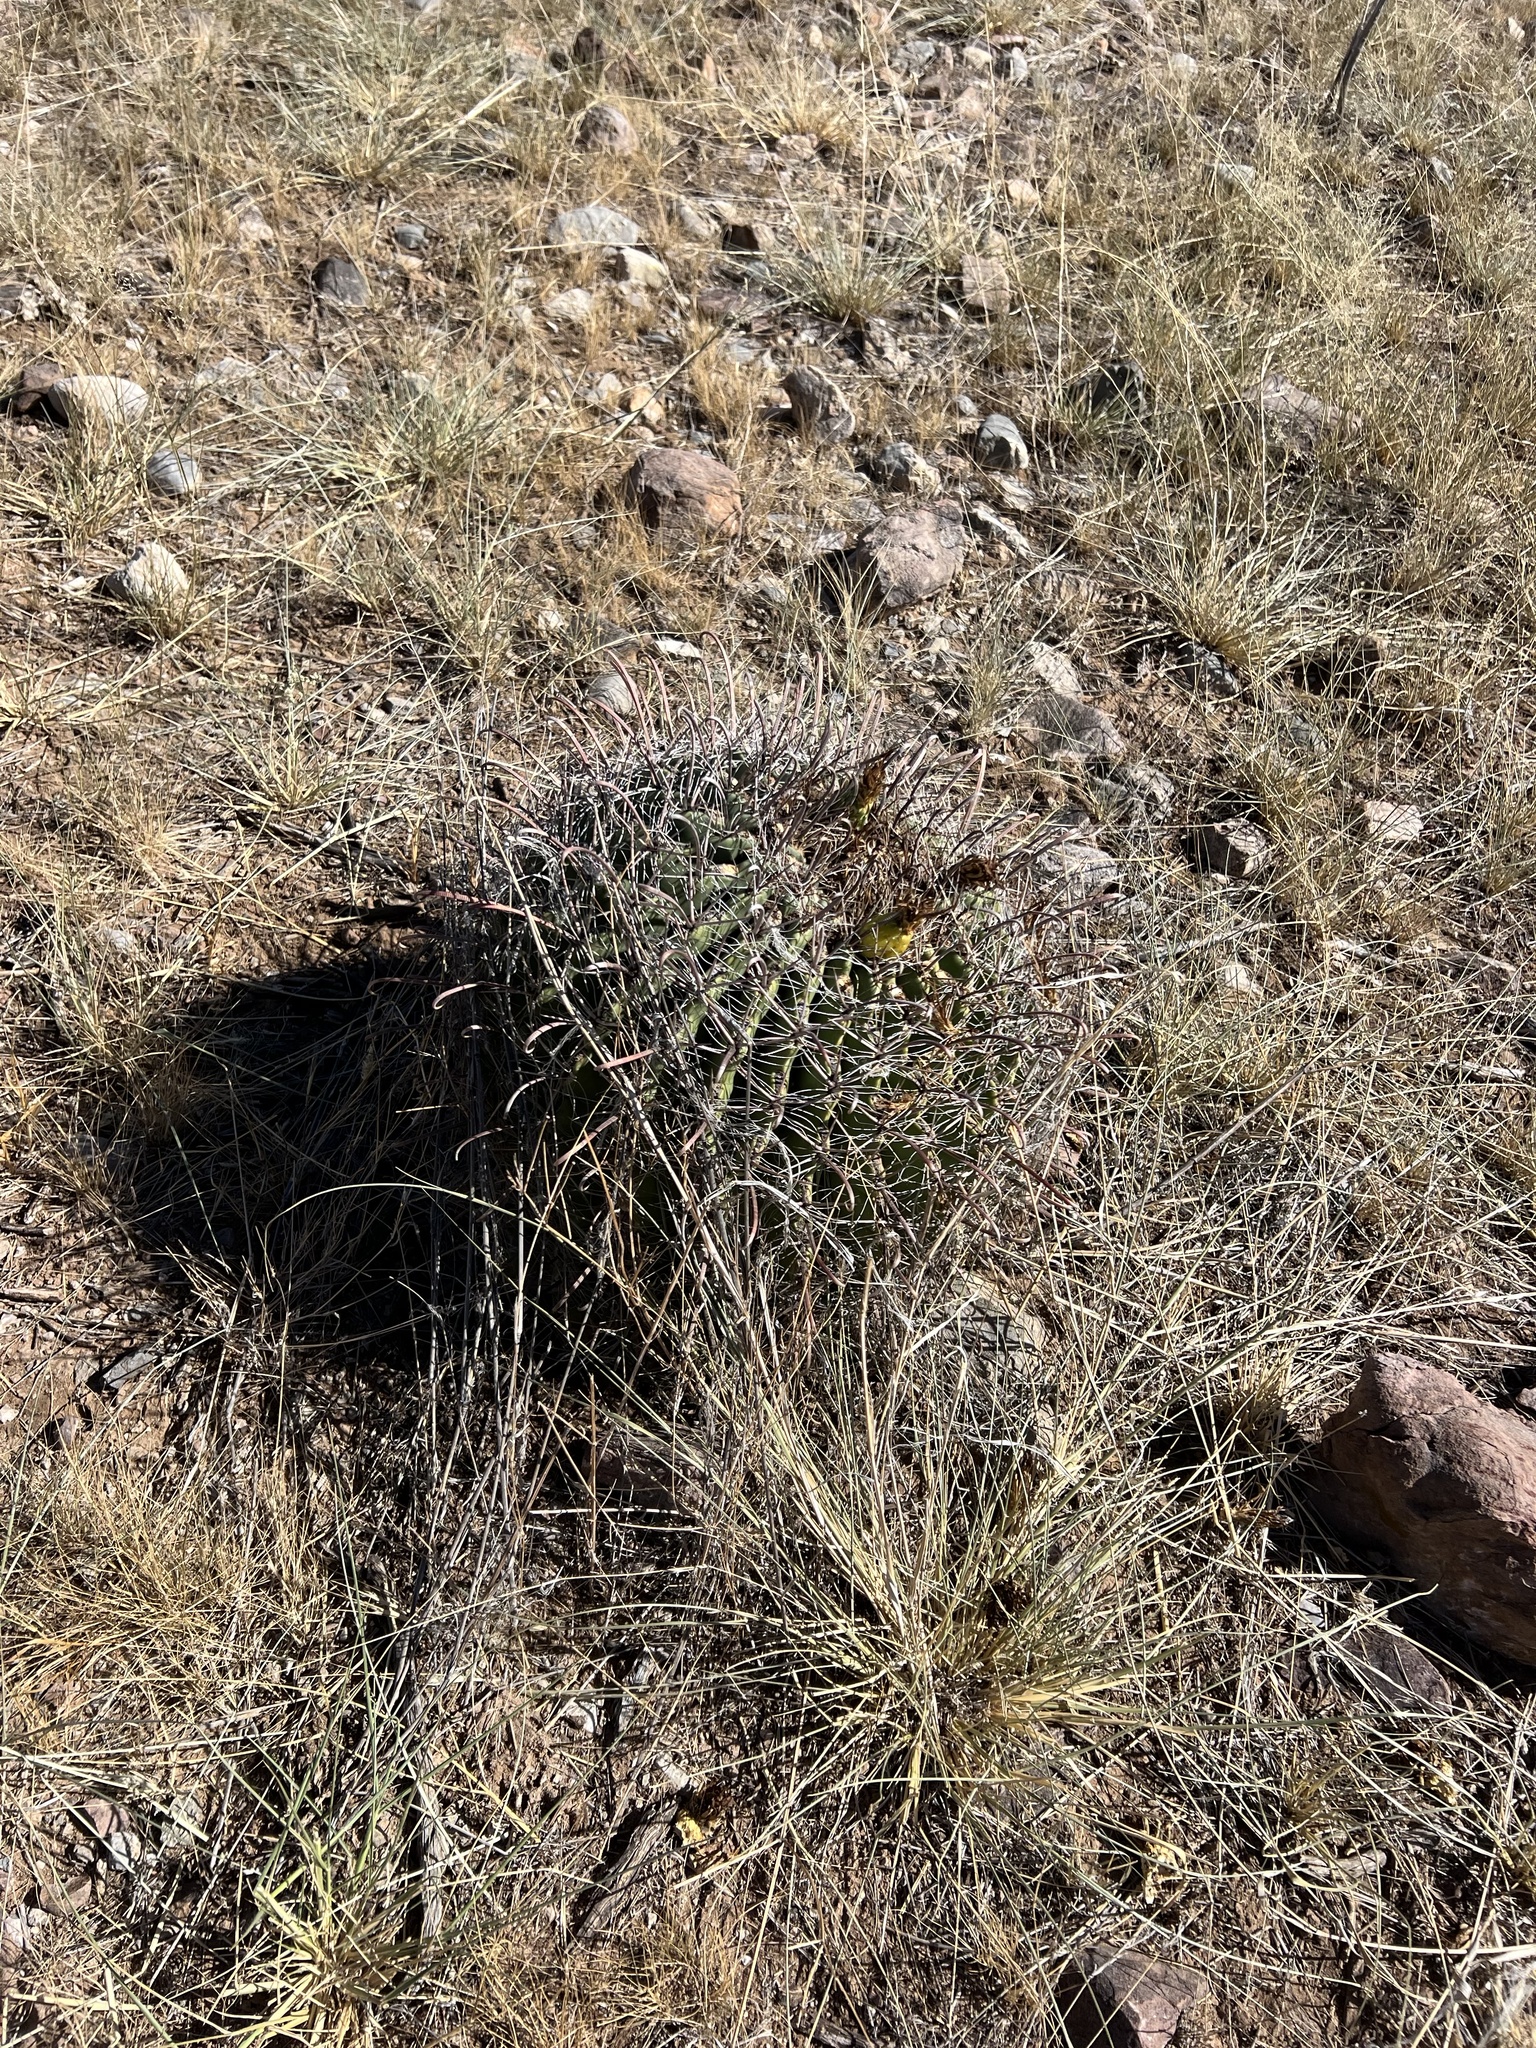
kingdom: Plantae
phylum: Tracheophyta
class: Magnoliopsida
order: Caryophyllales
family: Cactaceae
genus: Ferocactus
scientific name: Ferocactus wislizeni
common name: Candy barrel cactus
